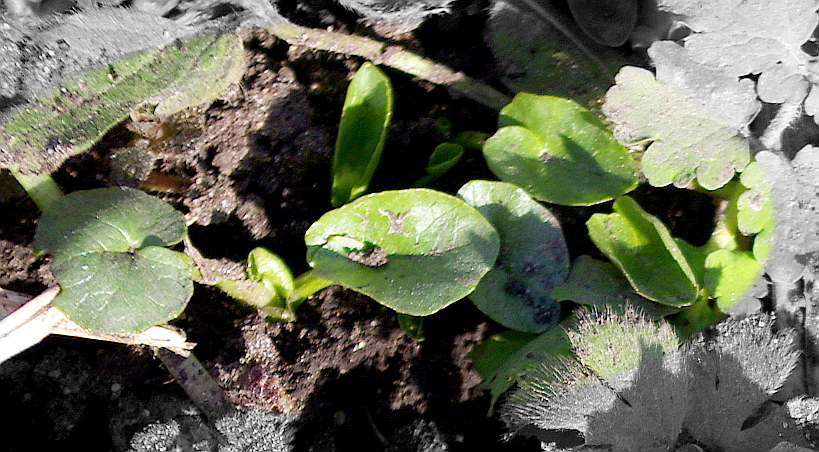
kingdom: Plantae
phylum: Tracheophyta
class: Magnoliopsida
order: Ranunculales
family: Ranunculaceae
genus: Ficaria
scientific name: Ficaria verna
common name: Lesser celandine
